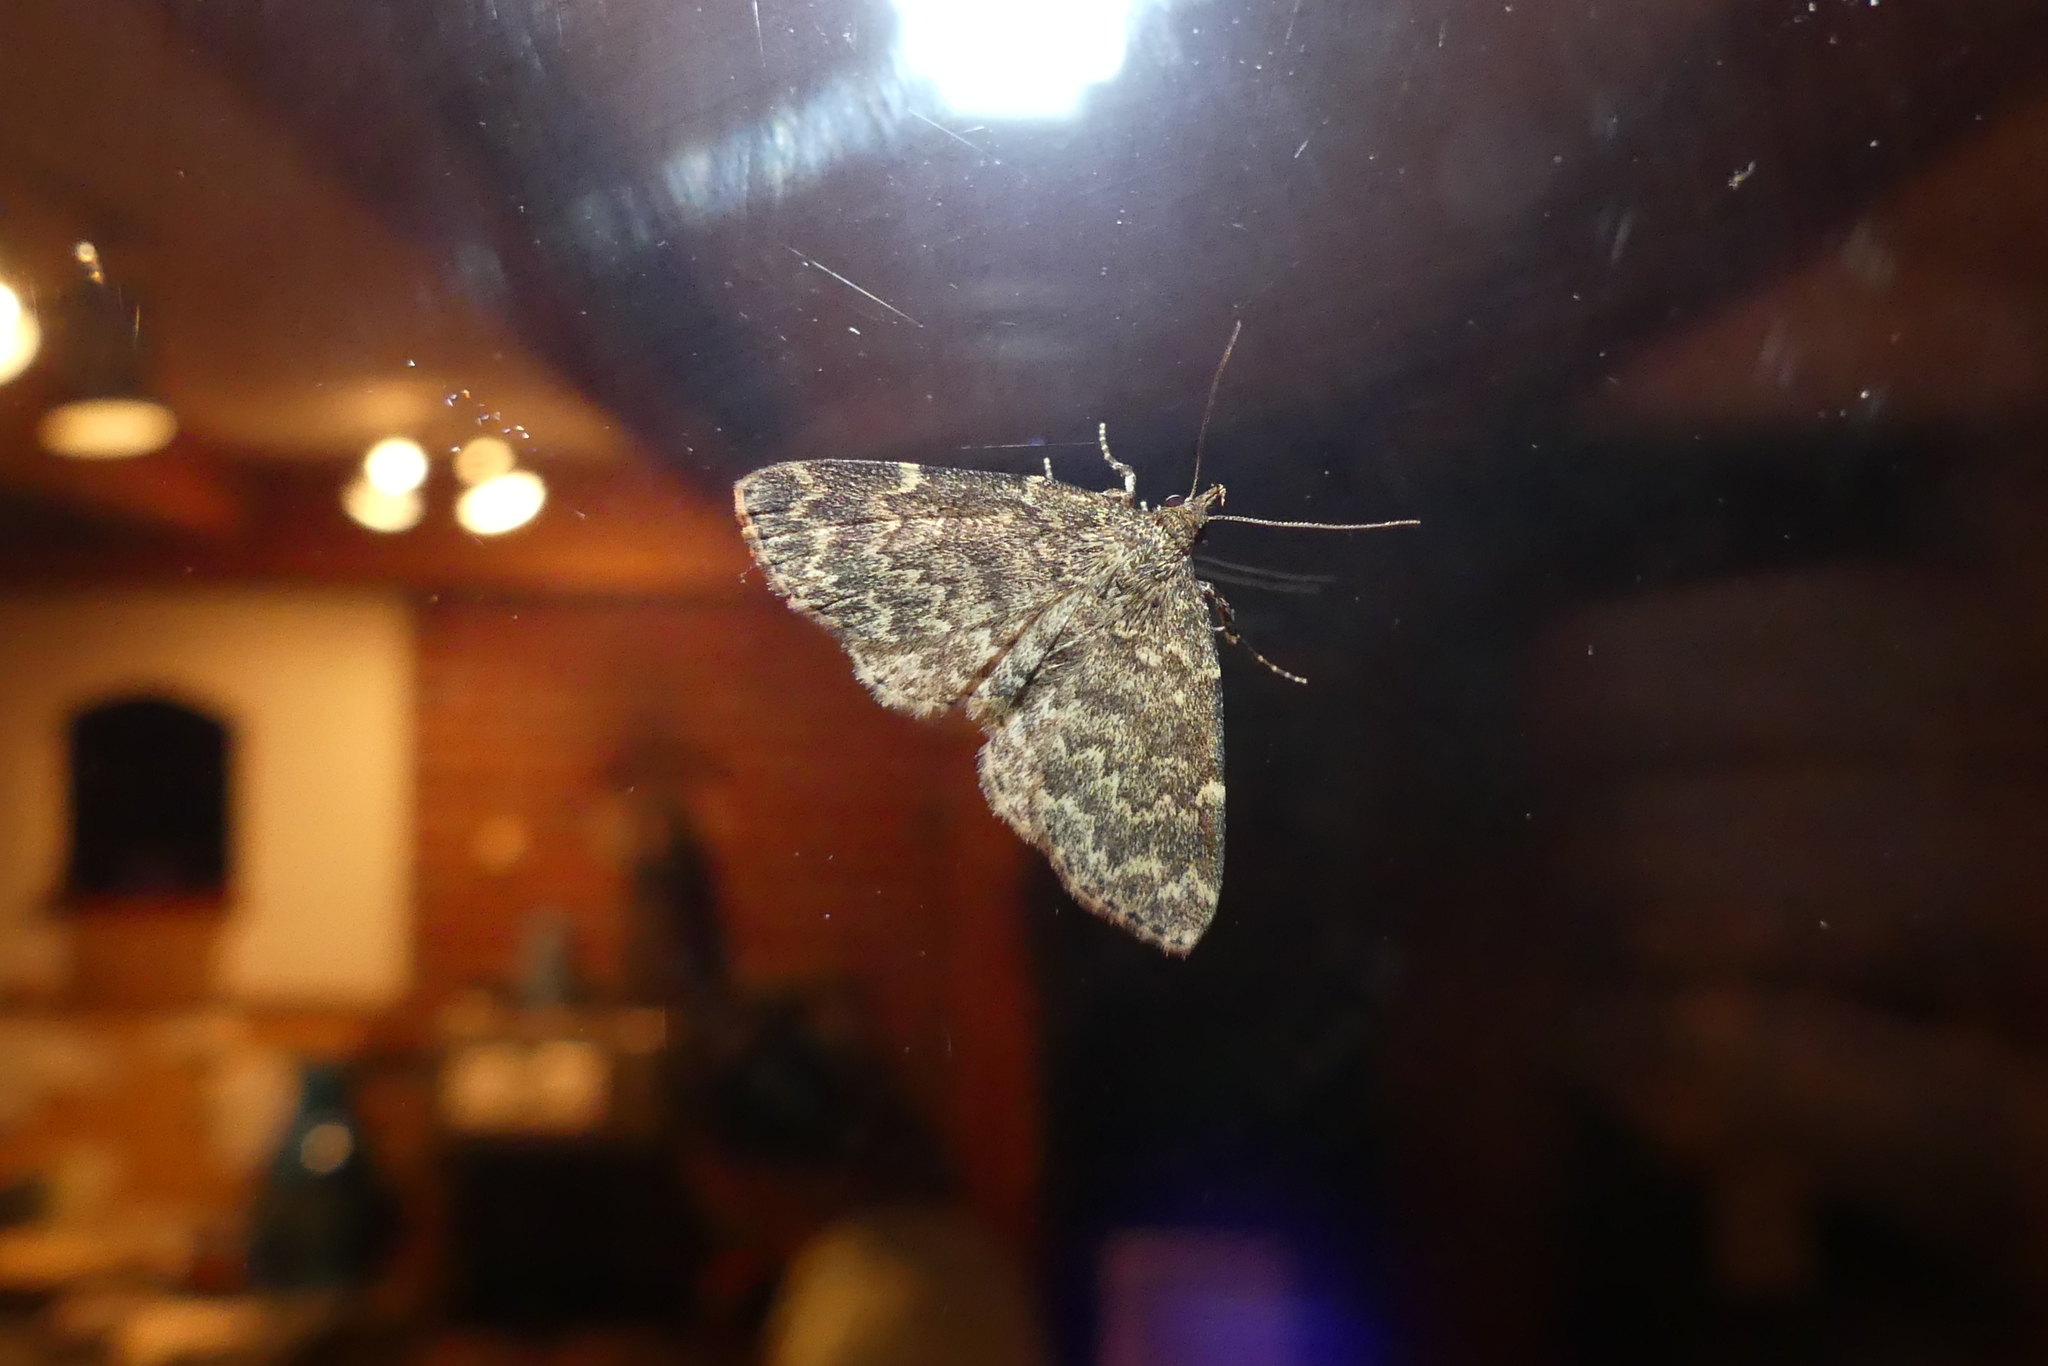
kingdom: Animalia
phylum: Arthropoda
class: Insecta
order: Lepidoptera
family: Erebidae
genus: Idia
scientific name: Idia laurentii
